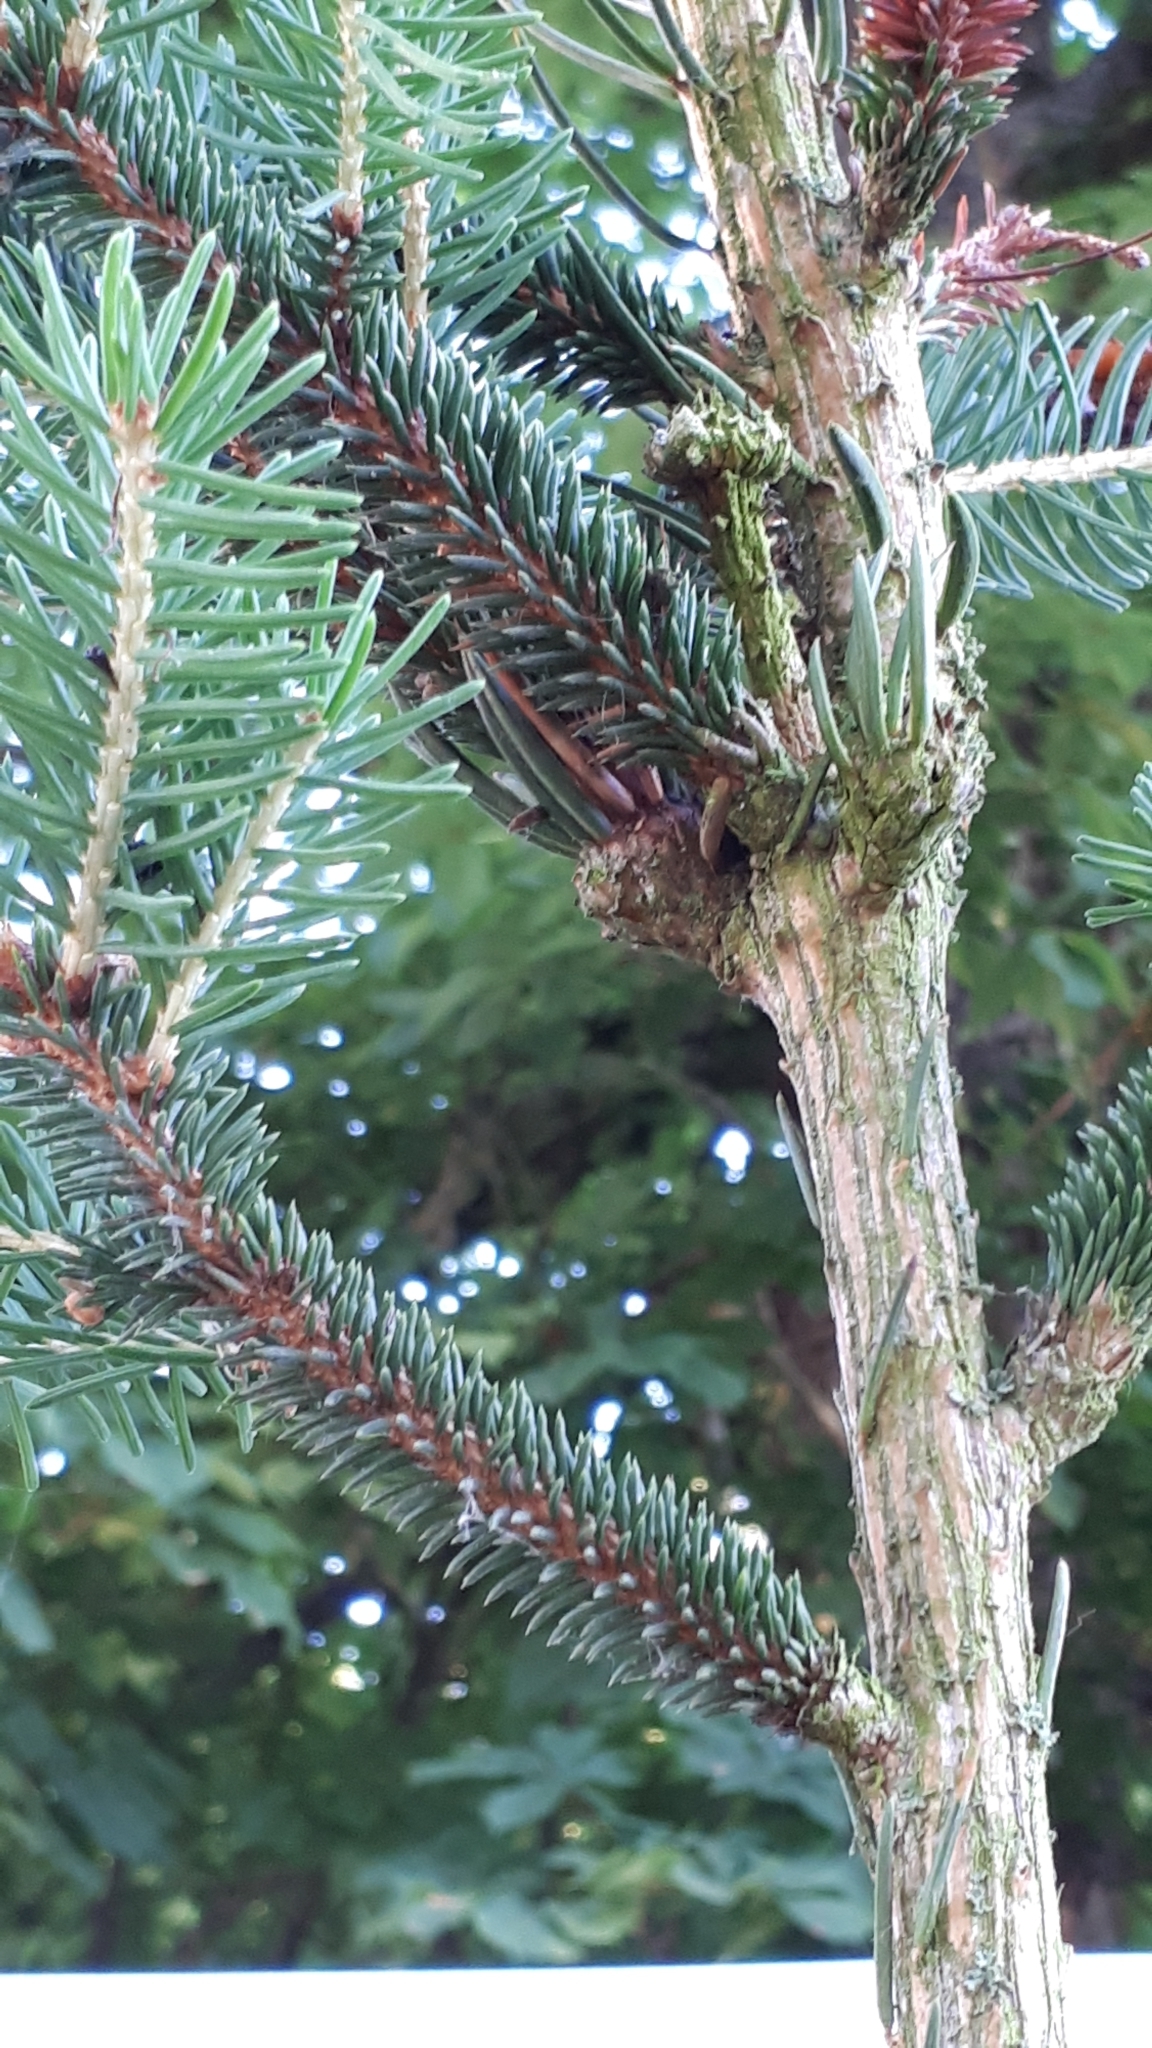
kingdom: Plantae
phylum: Tracheophyta
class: Pinopsida
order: Pinales
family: Pinaceae
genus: Picea
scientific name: Picea abies
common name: Norway spruce
